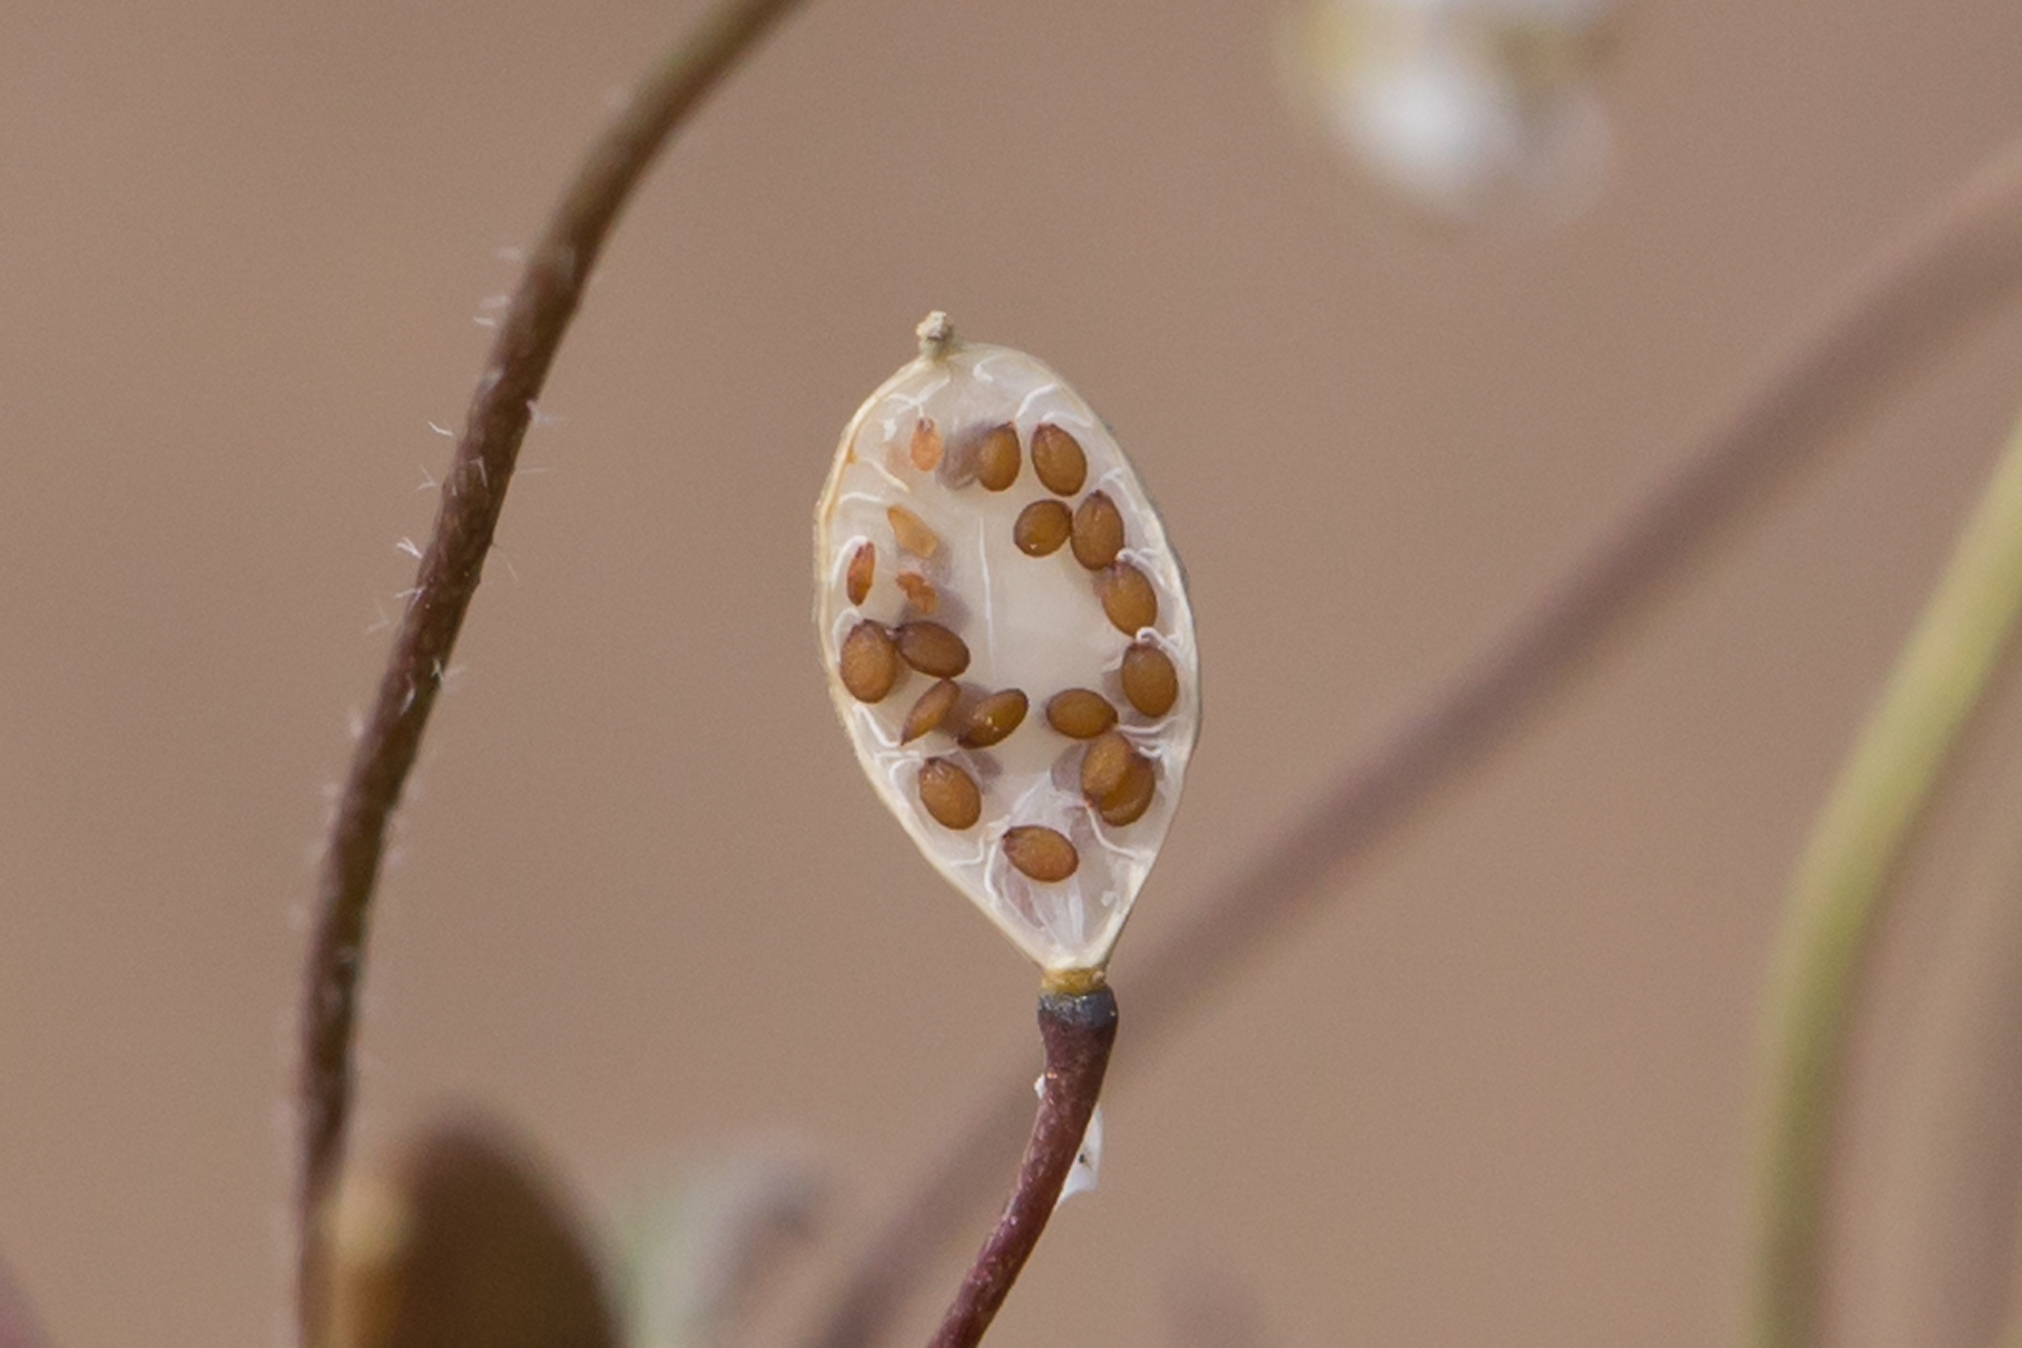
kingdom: Plantae
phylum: Tracheophyta
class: Magnoliopsida
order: Brassicales
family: Brassicaceae
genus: Draba
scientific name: Draba verna
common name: Spring draba
